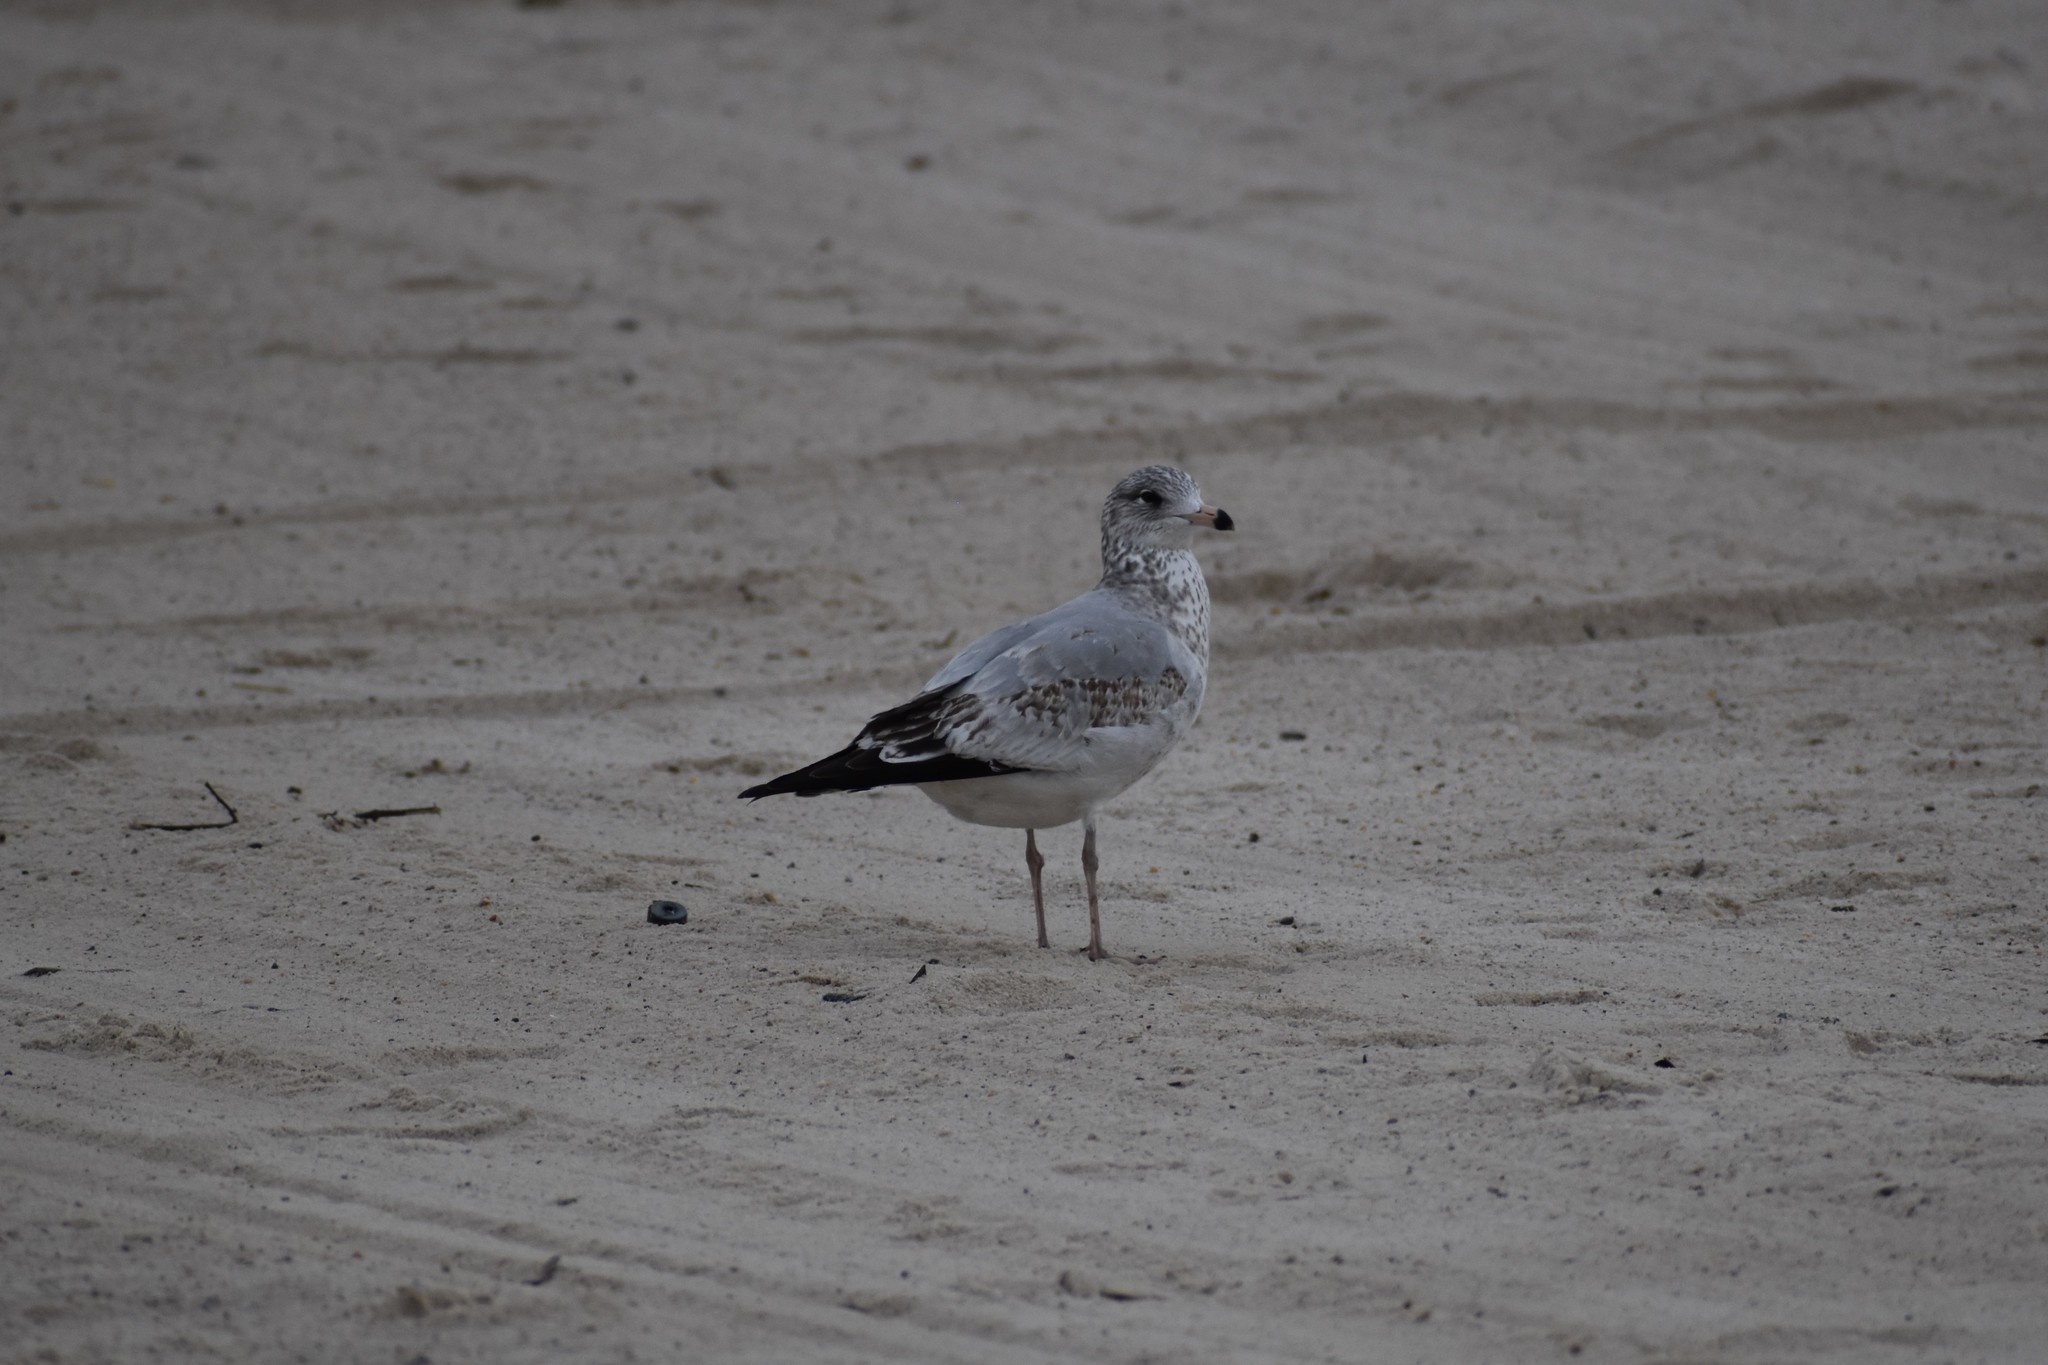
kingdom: Animalia
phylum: Chordata
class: Aves
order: Charadriiformes
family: Laridae
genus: Larus
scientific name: Larus delawarensis
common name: Ring-billed gull
